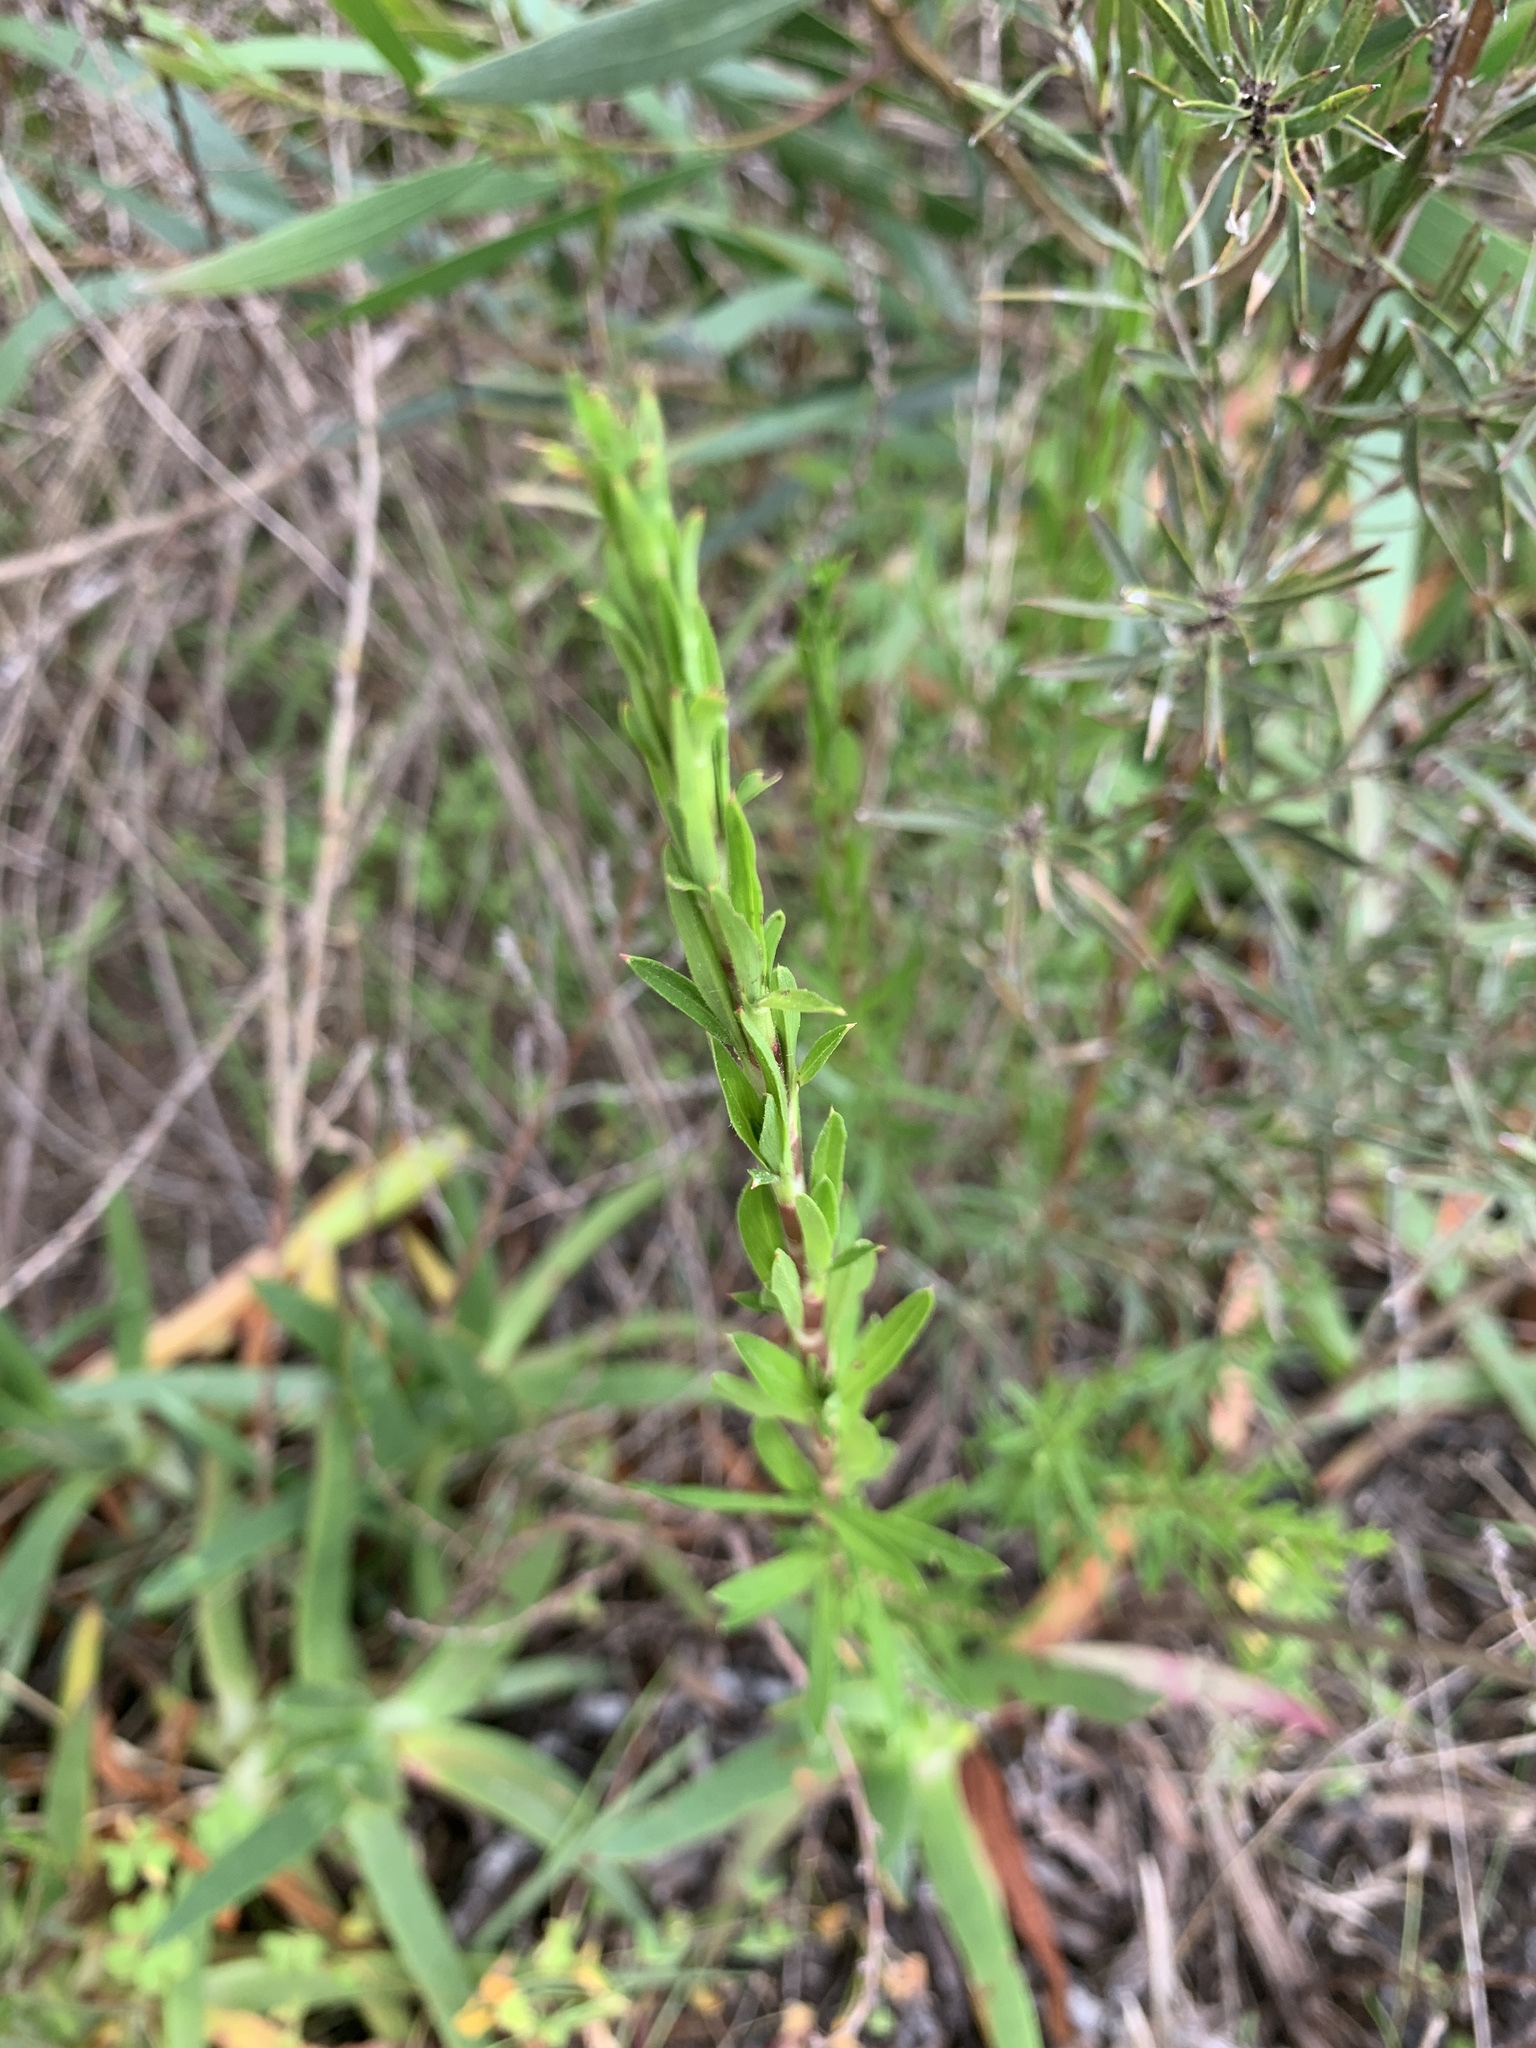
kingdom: Plantae
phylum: Tracheophyta
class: Magnoliopsida
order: Rosales
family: Rosaceae
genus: Cliffortia
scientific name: Cliffortia strobilifera
